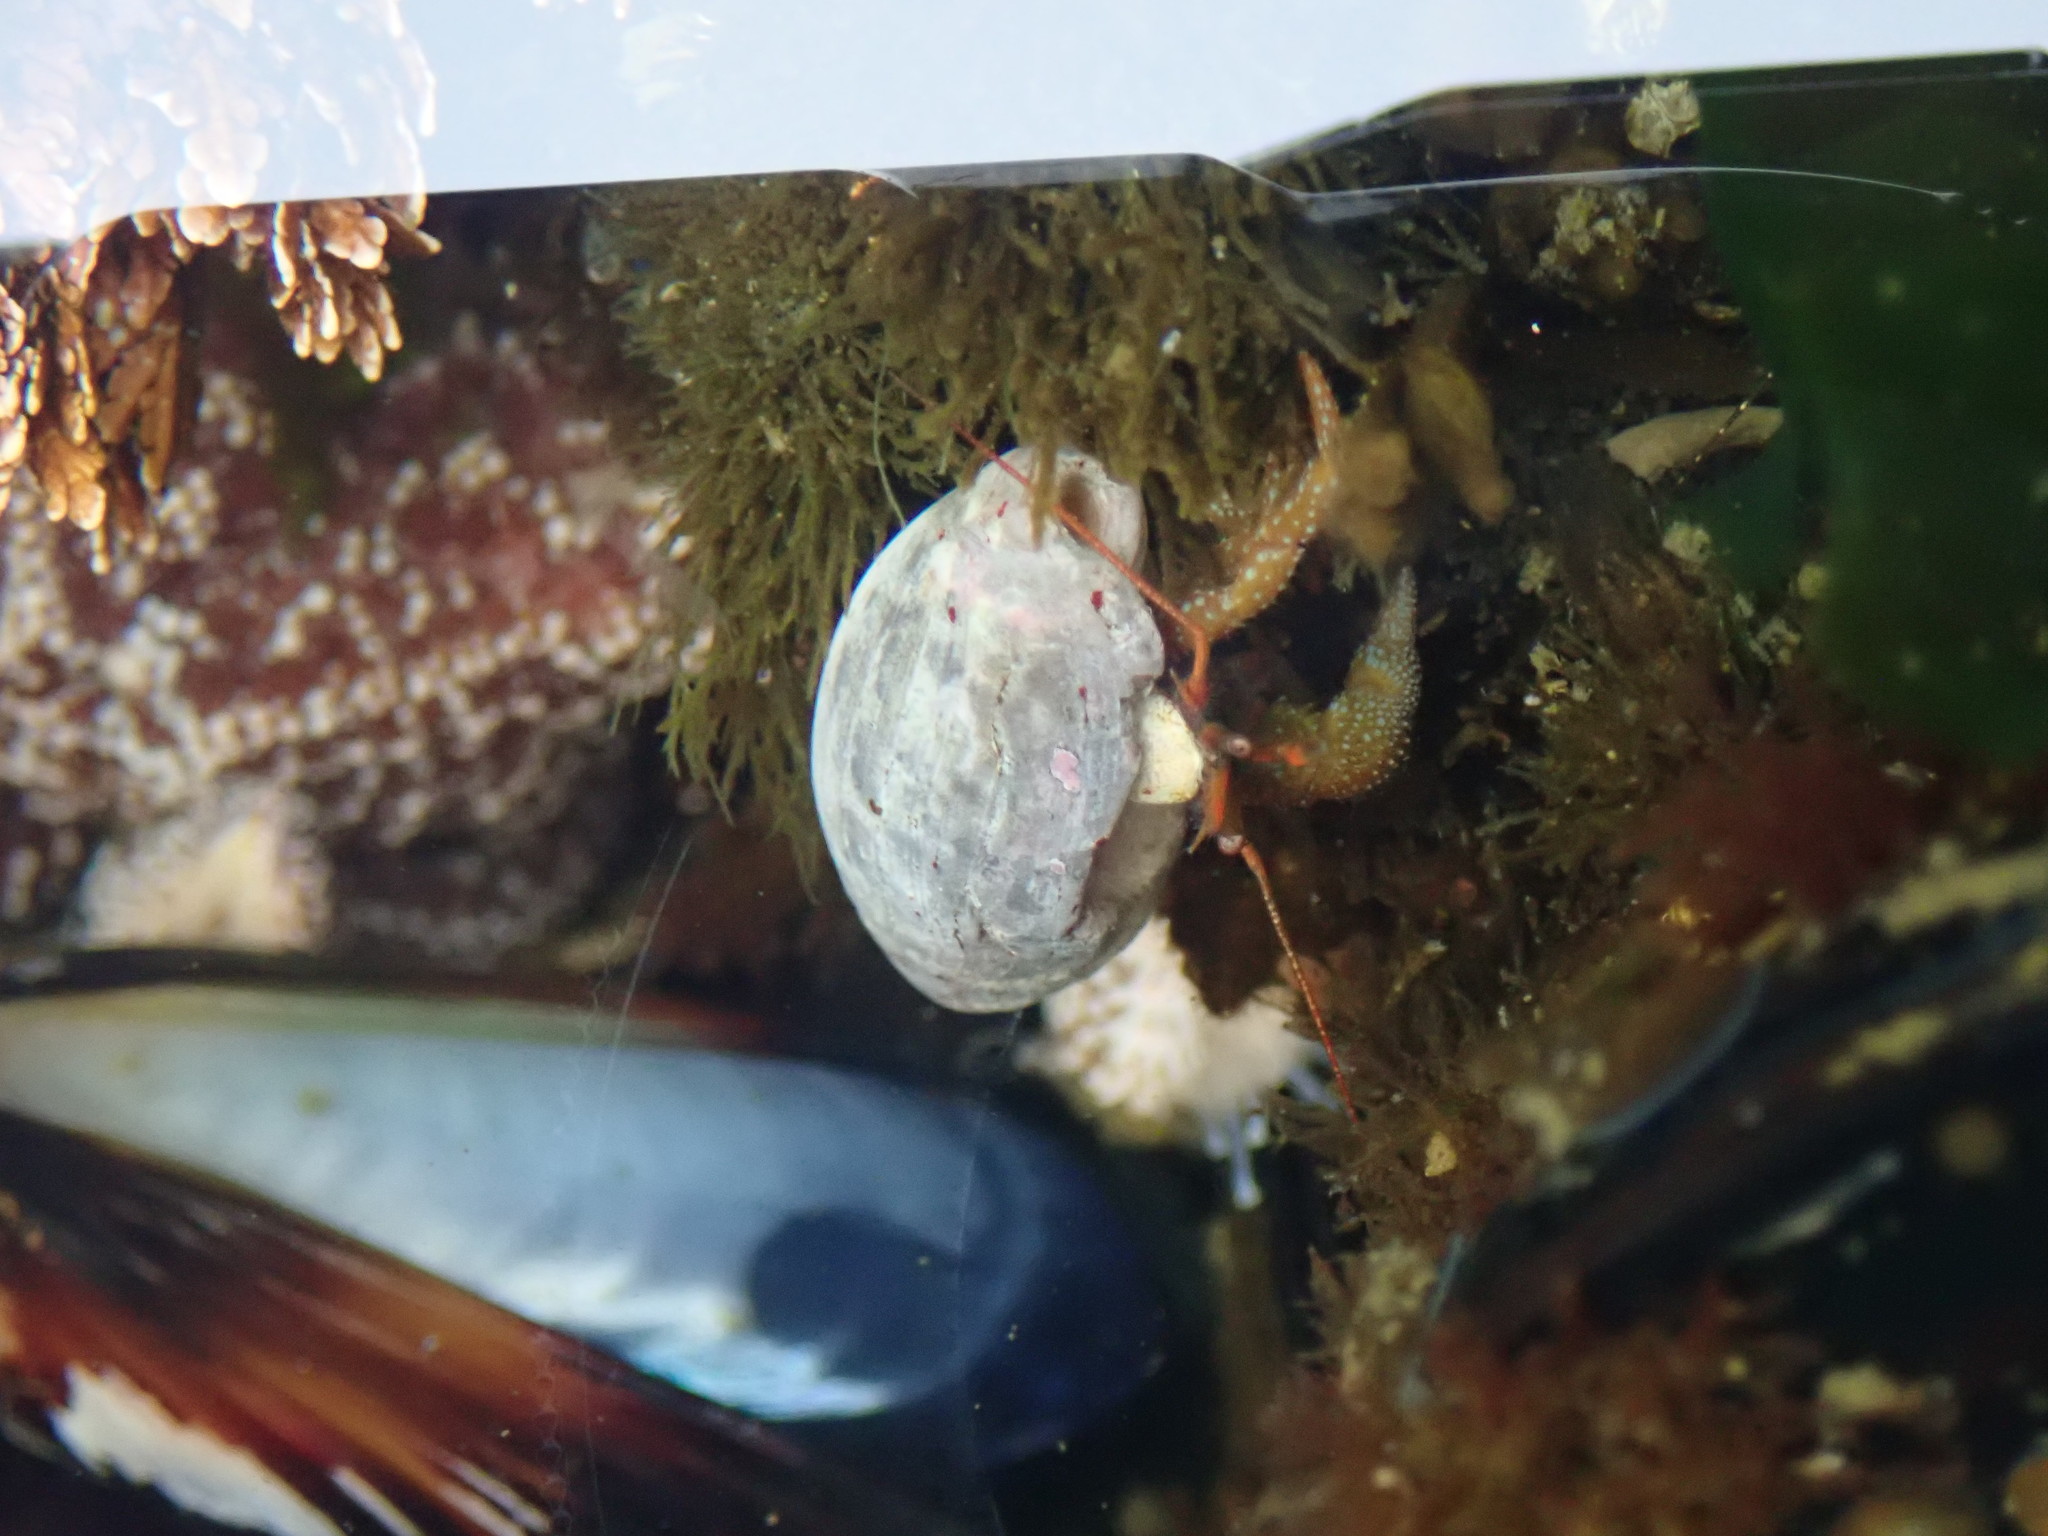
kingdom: Animalia
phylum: Arthropoda
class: Malacostraca
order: Decapoda
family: Paguridae
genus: Pagurus
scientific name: Pagurus granosimanus
